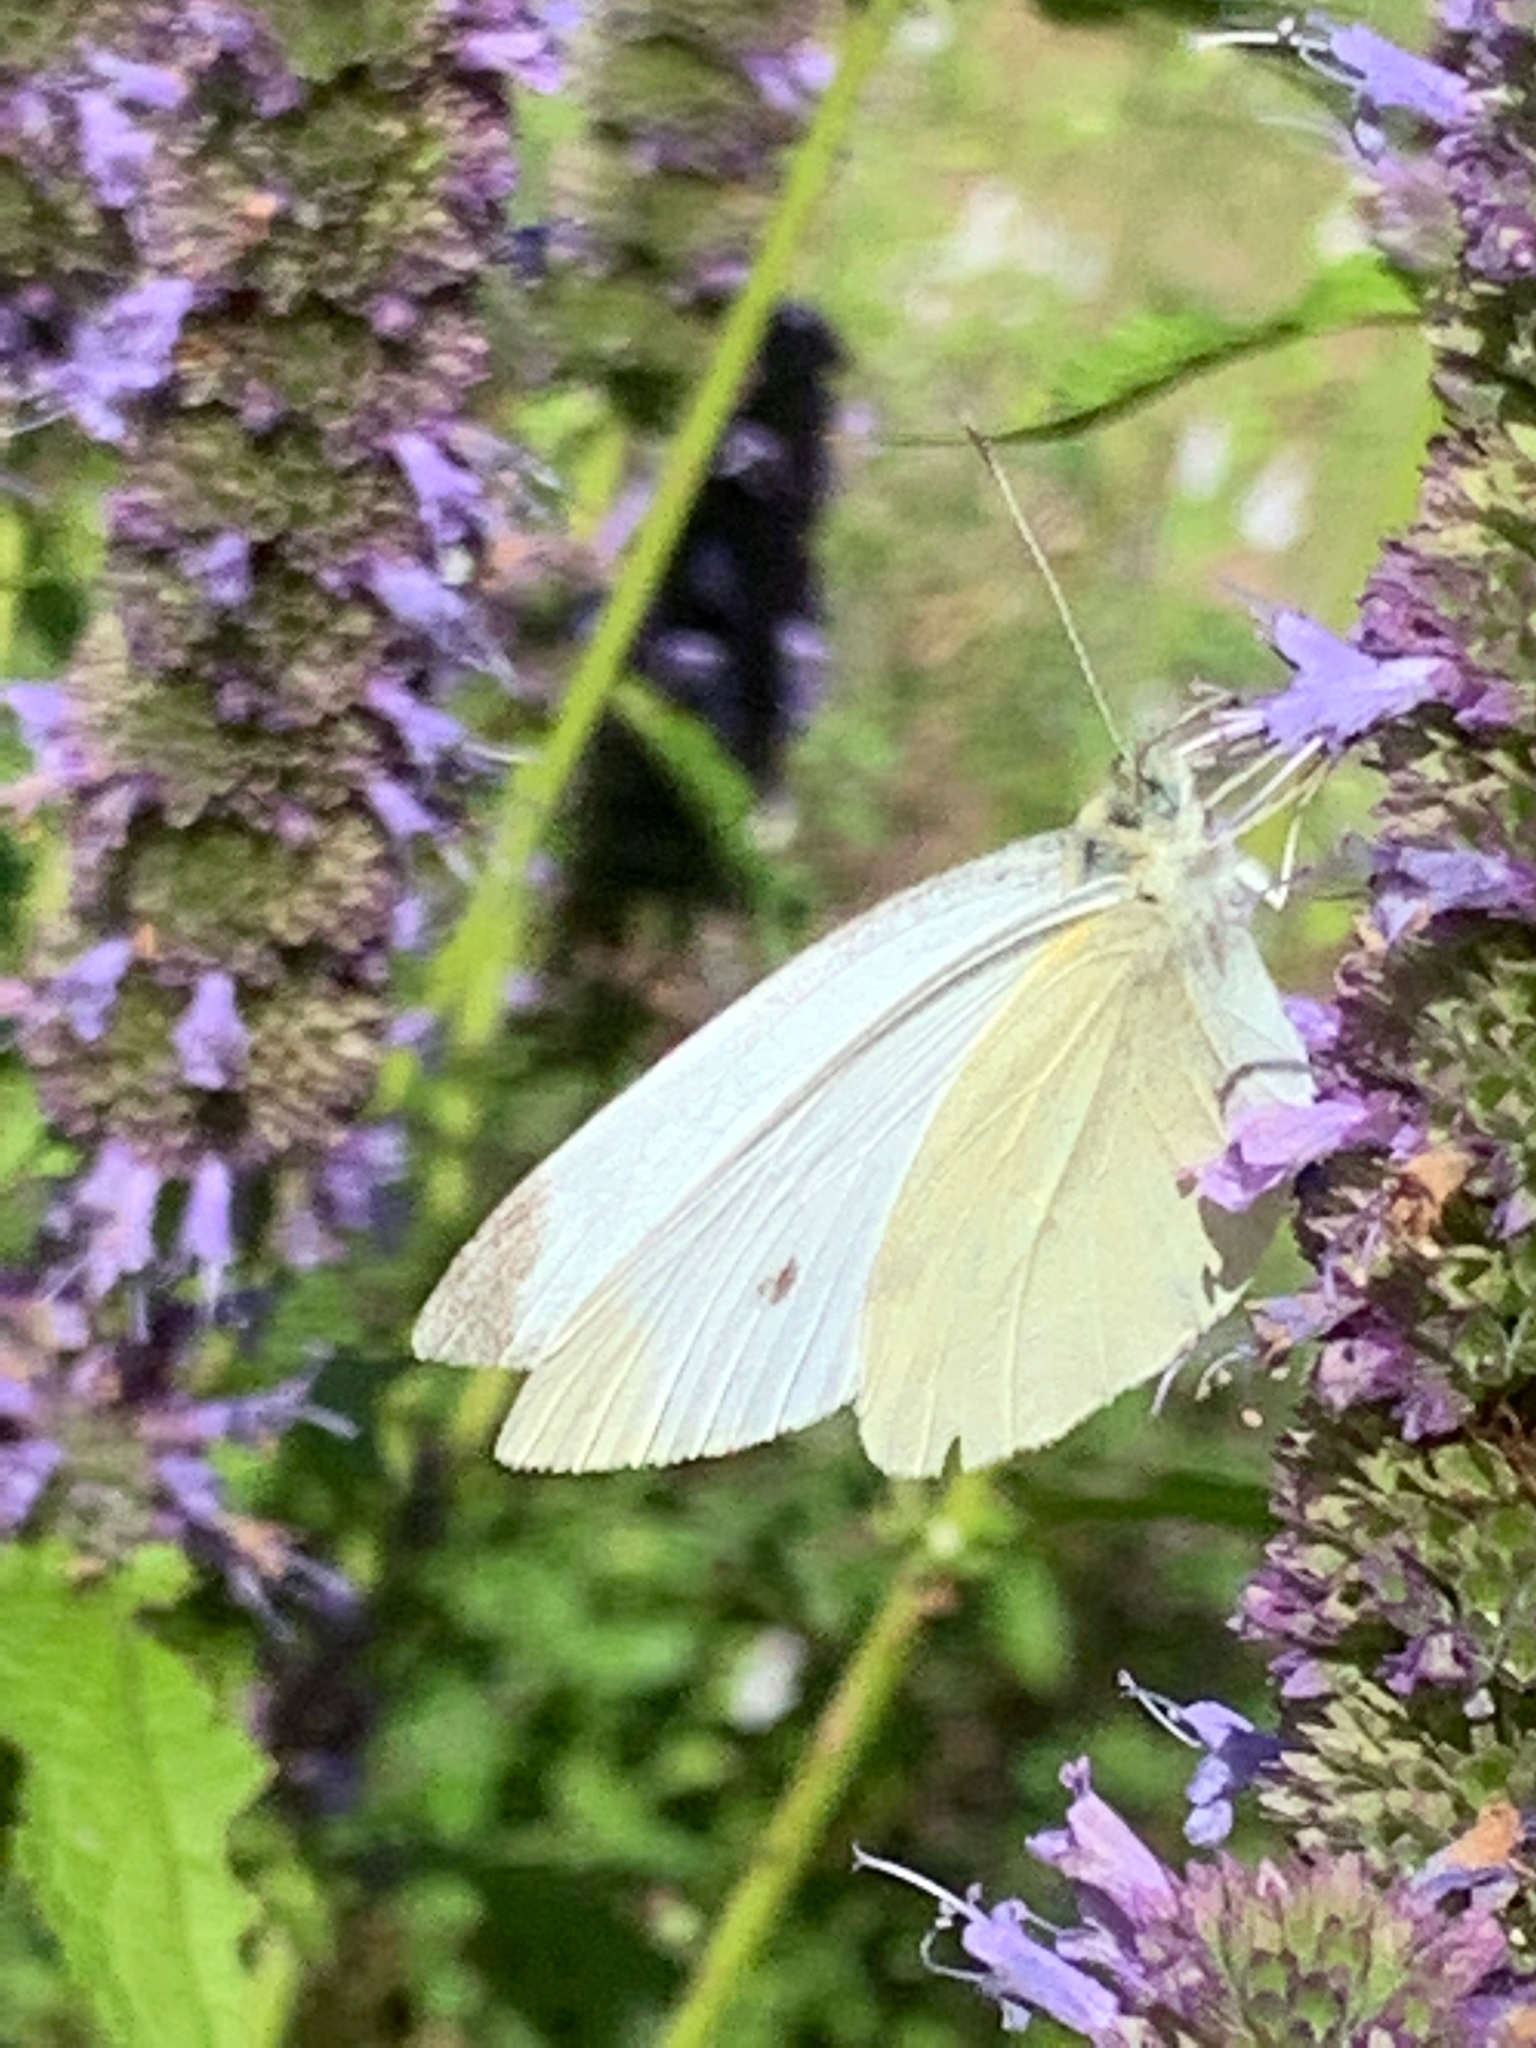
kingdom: Animalia
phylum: Arthropoda
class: Insecta
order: Lepidoptera
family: Pieridae
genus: Pieris
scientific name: Pieris rapae
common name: Small white
